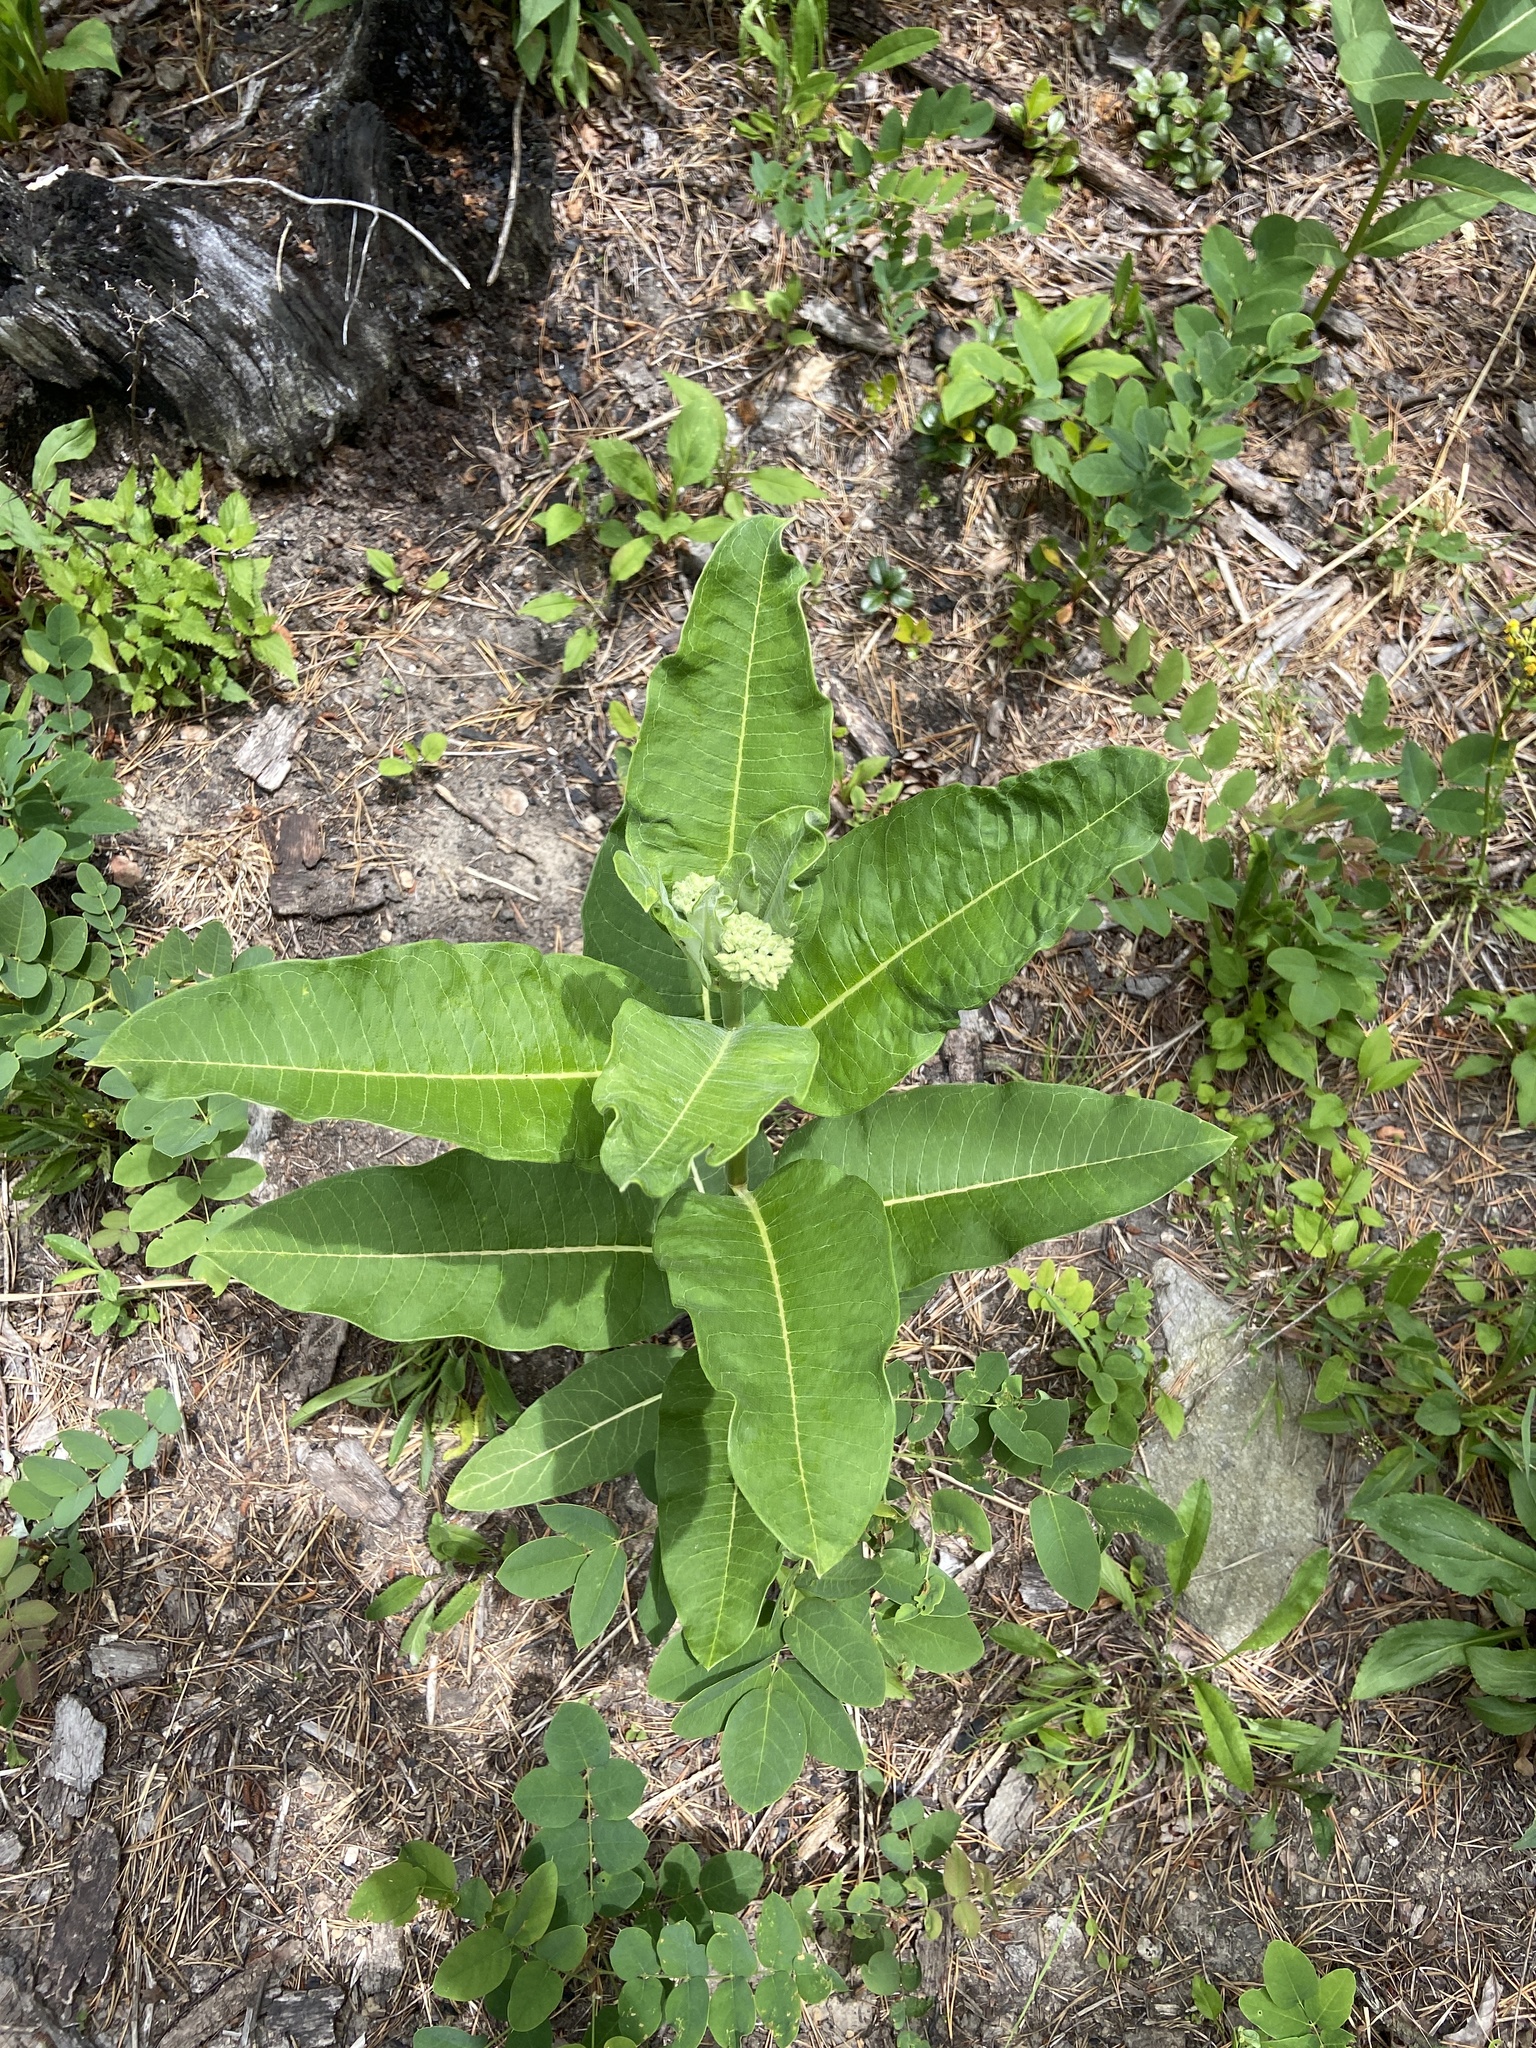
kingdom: Plantae
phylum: Tracheophyta
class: Magnoliopsida
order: Gentianales
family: Apocynaceae
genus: Asclepias
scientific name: Asclepias syriaca
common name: Common milkweed
